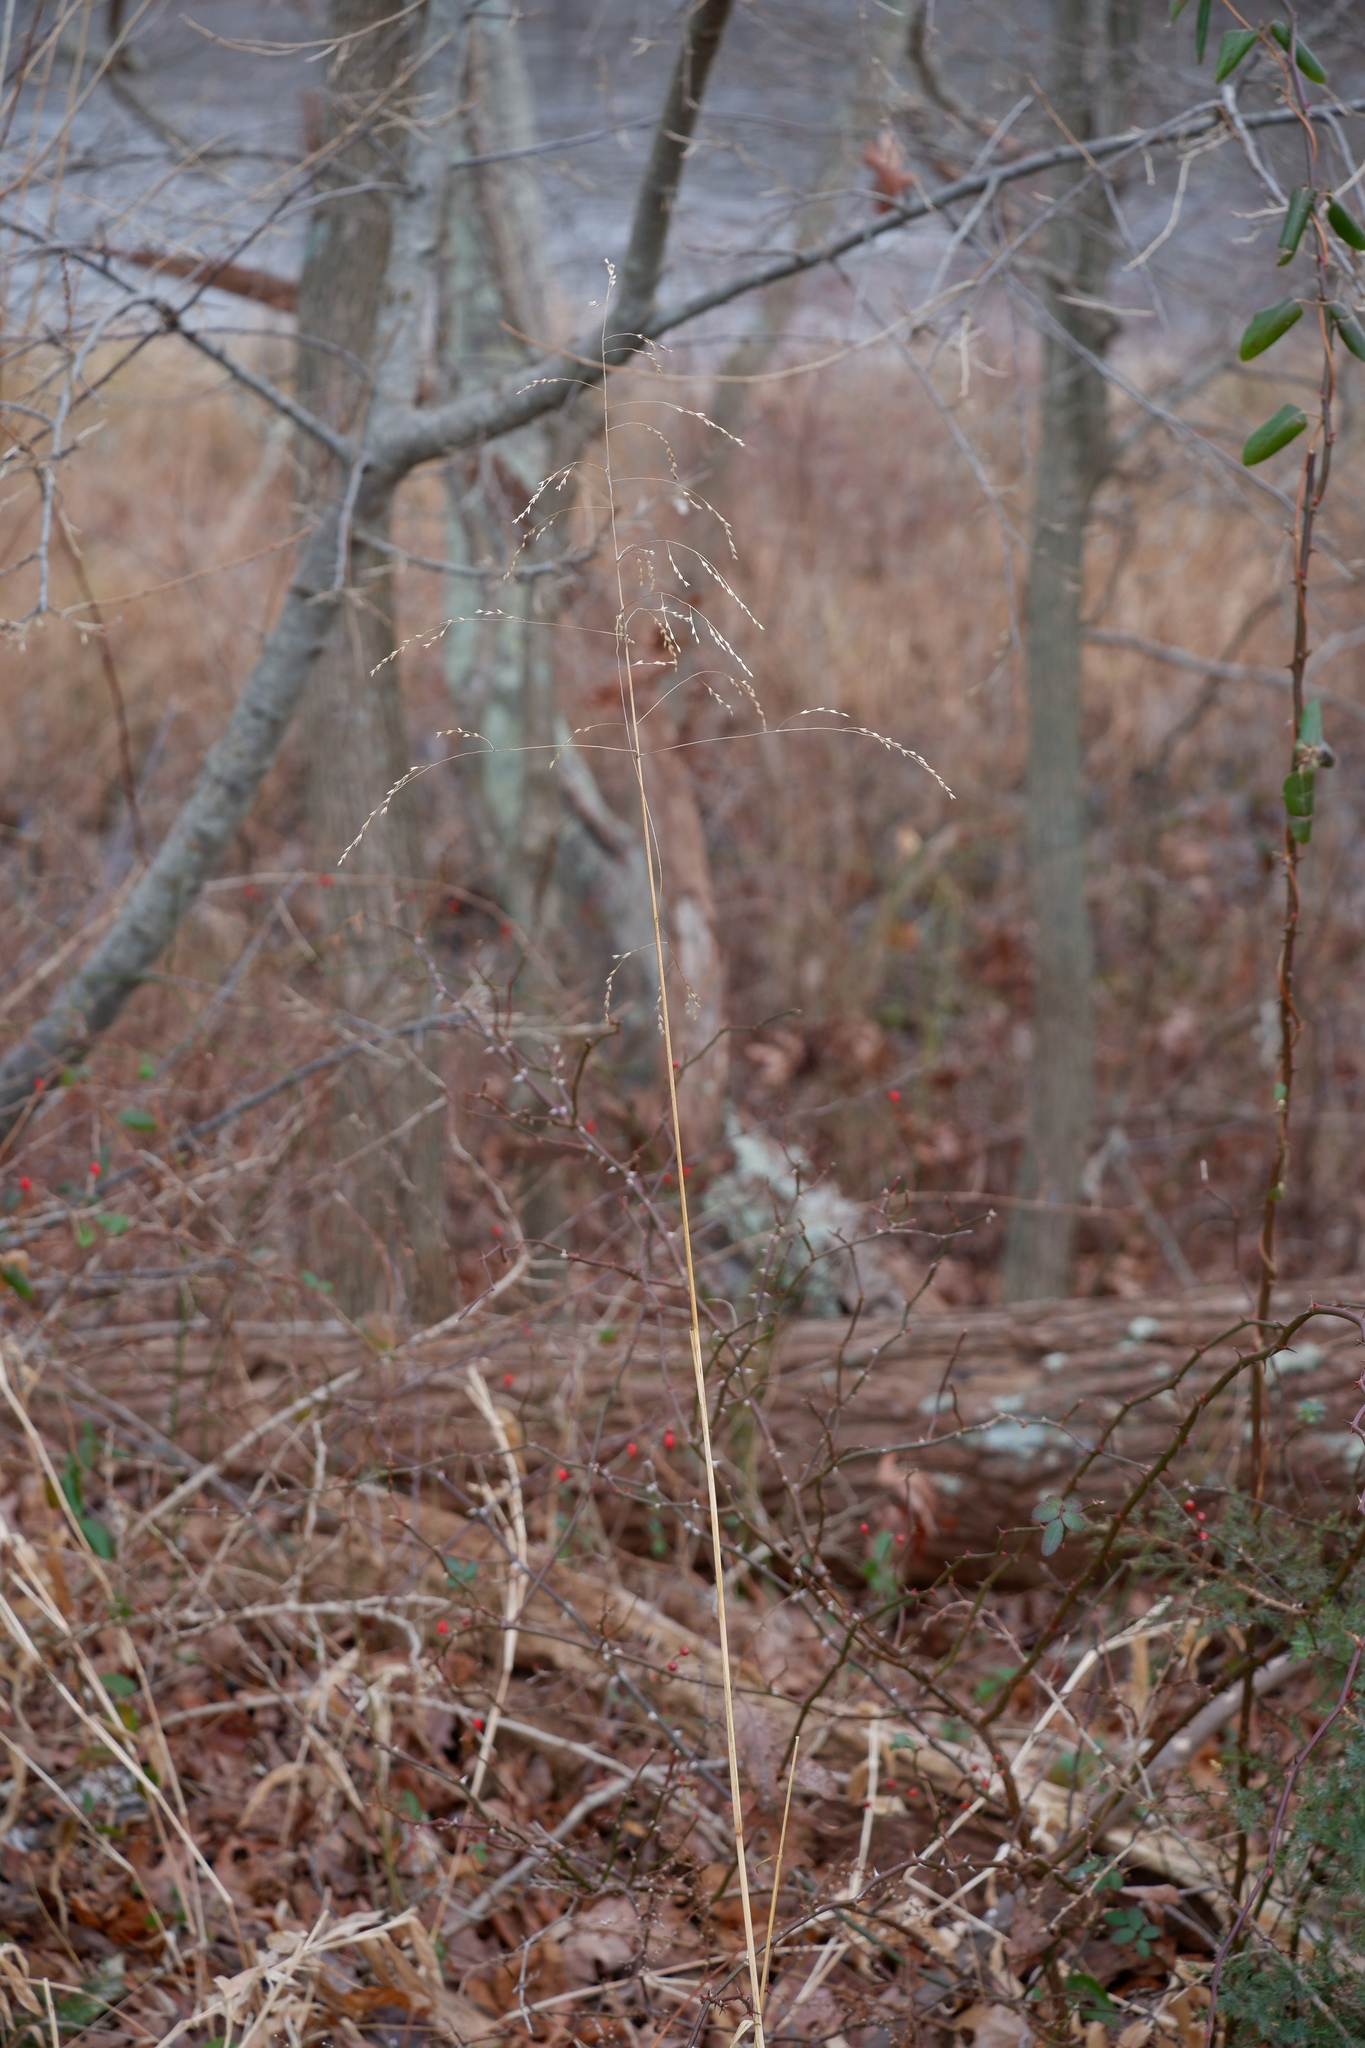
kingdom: Plantae
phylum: Tracheophyta
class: Liliopsida
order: Poales
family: Poaceae
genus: Tridens
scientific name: Tridens flavus
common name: Purpletop
